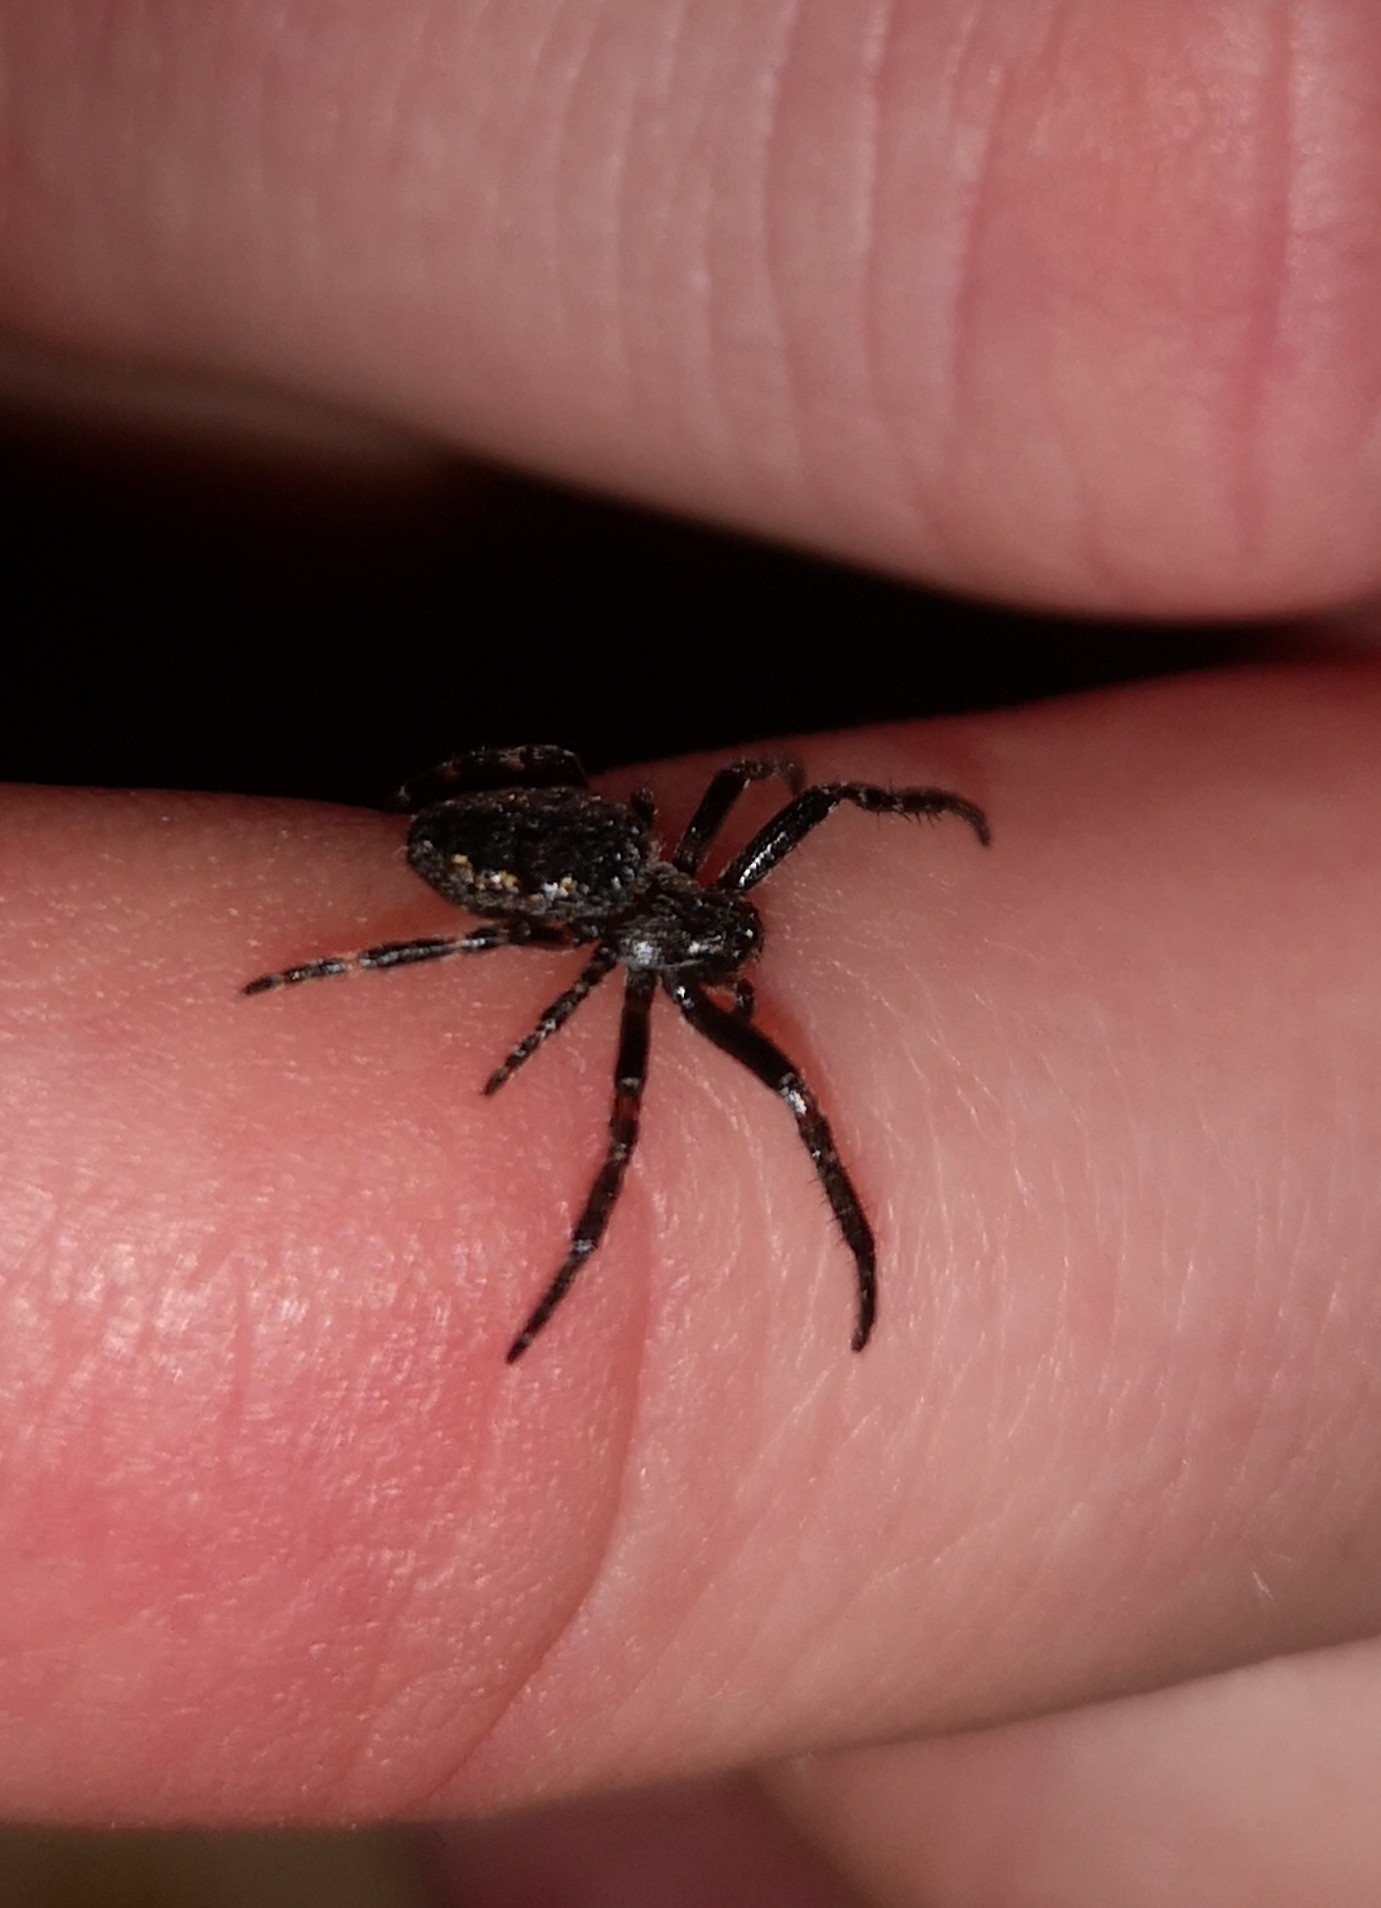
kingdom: Animalia
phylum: Arthropoda
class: Arachnida
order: Araneae
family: Araneidae
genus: Nuctenea
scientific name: Nuctenea umbratica
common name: Toad spider
